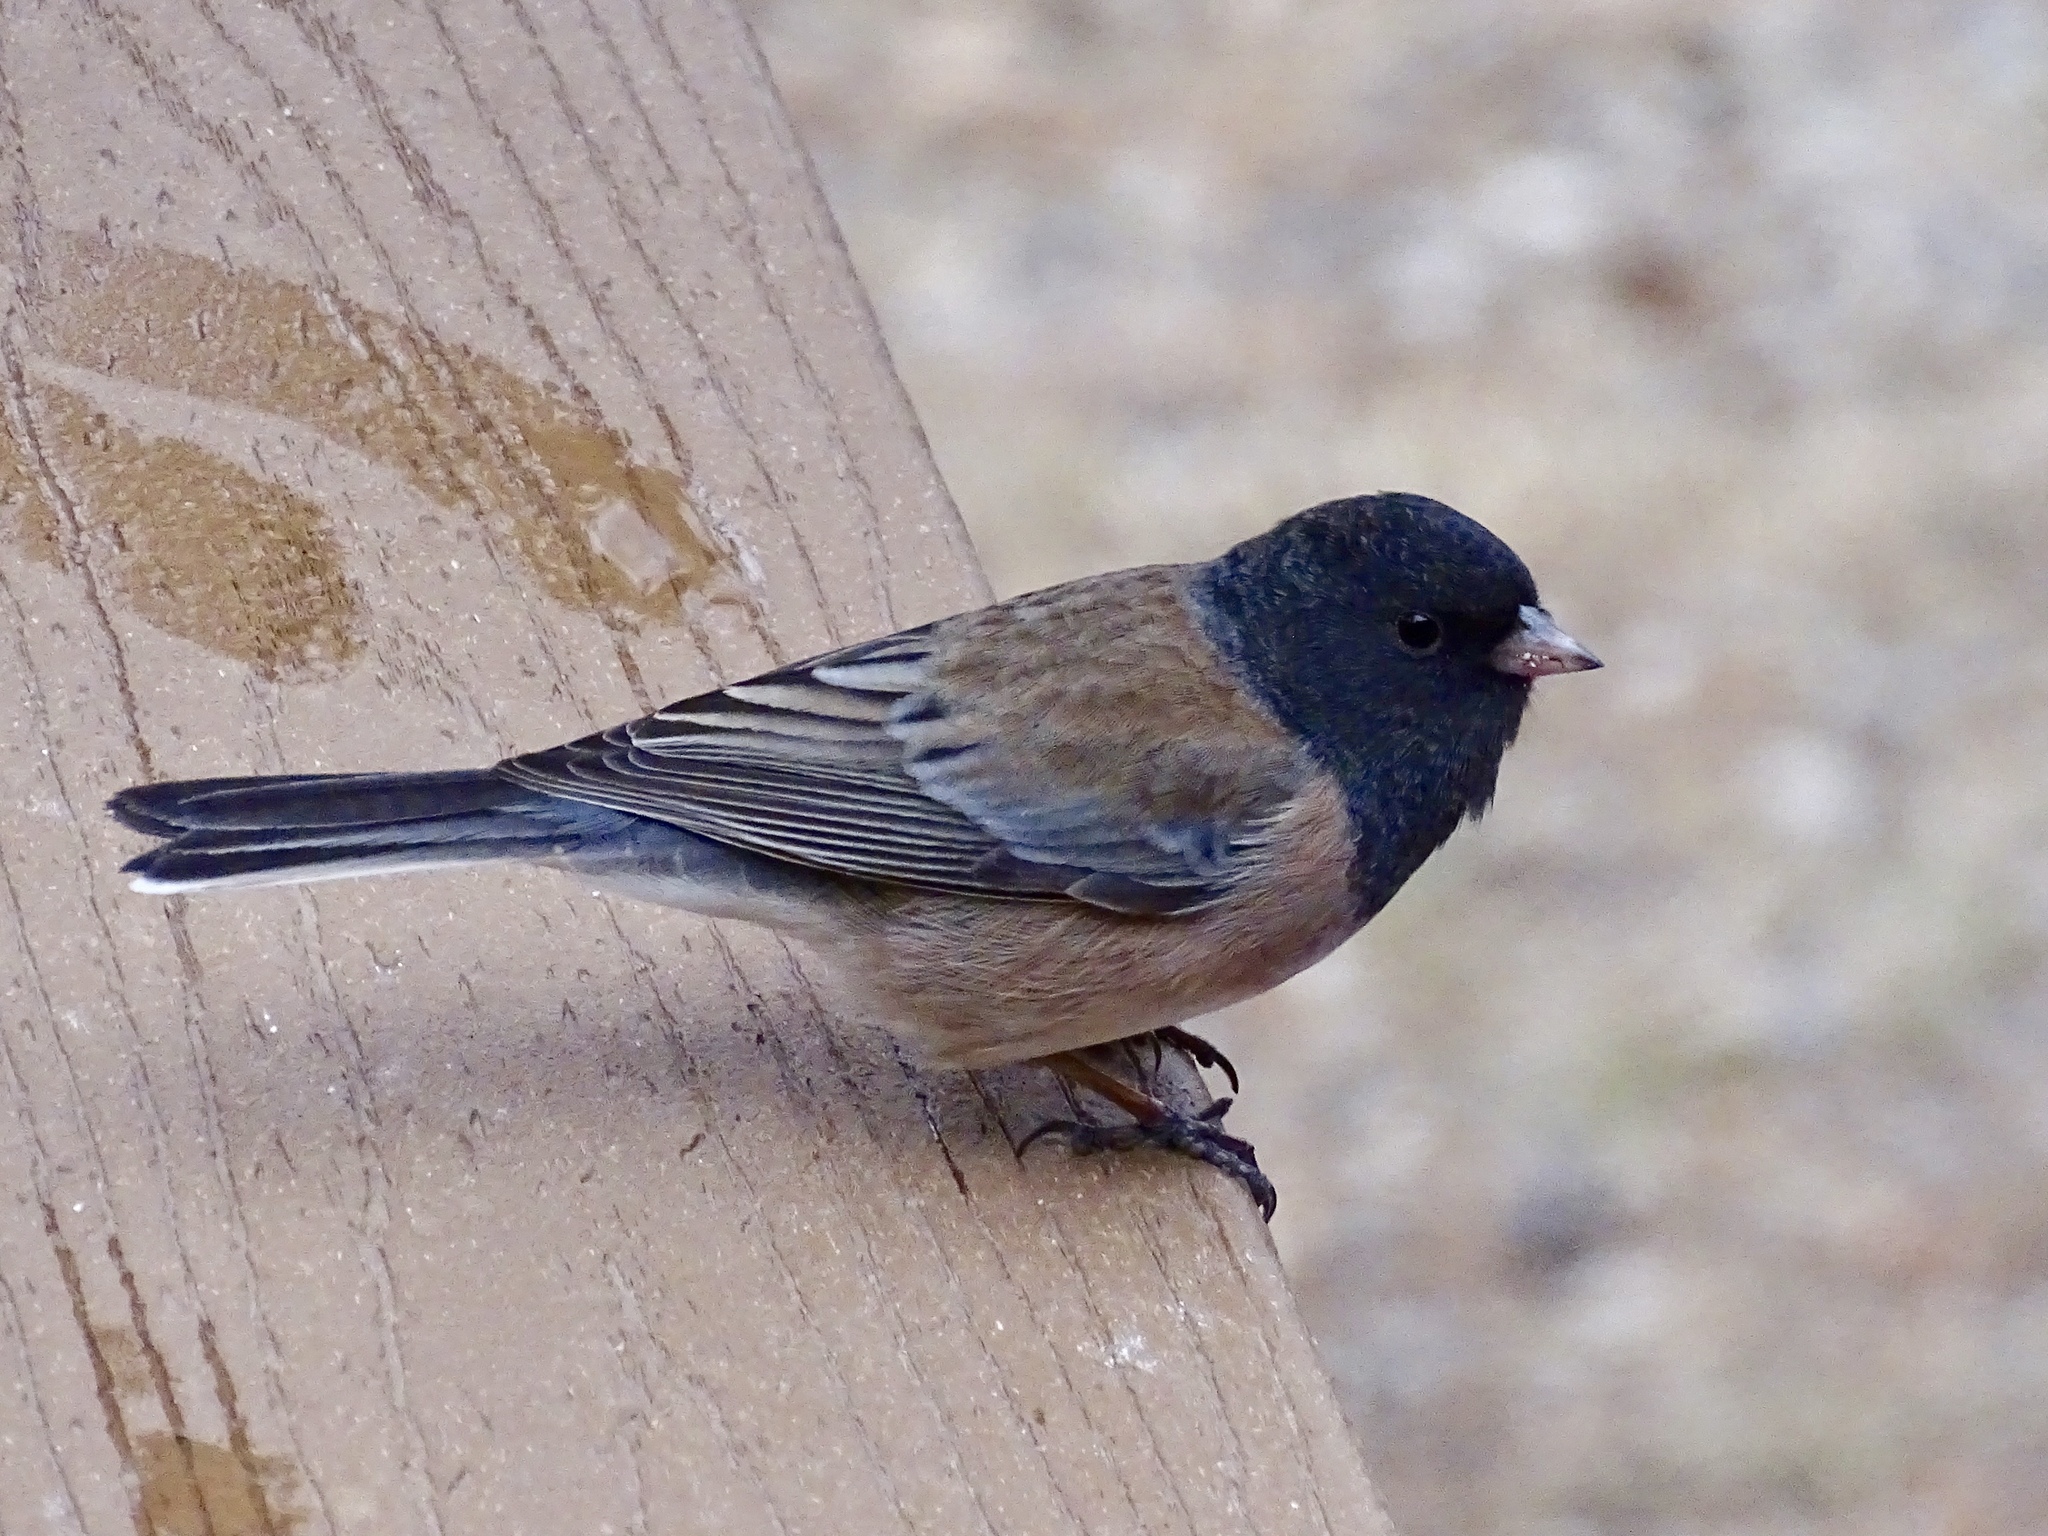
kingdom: Animalia
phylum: Chordata
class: Aves
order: Passeriformes
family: Passerellidae
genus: Junco
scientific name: Junco hyemalis
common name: Dark-eyed junco
